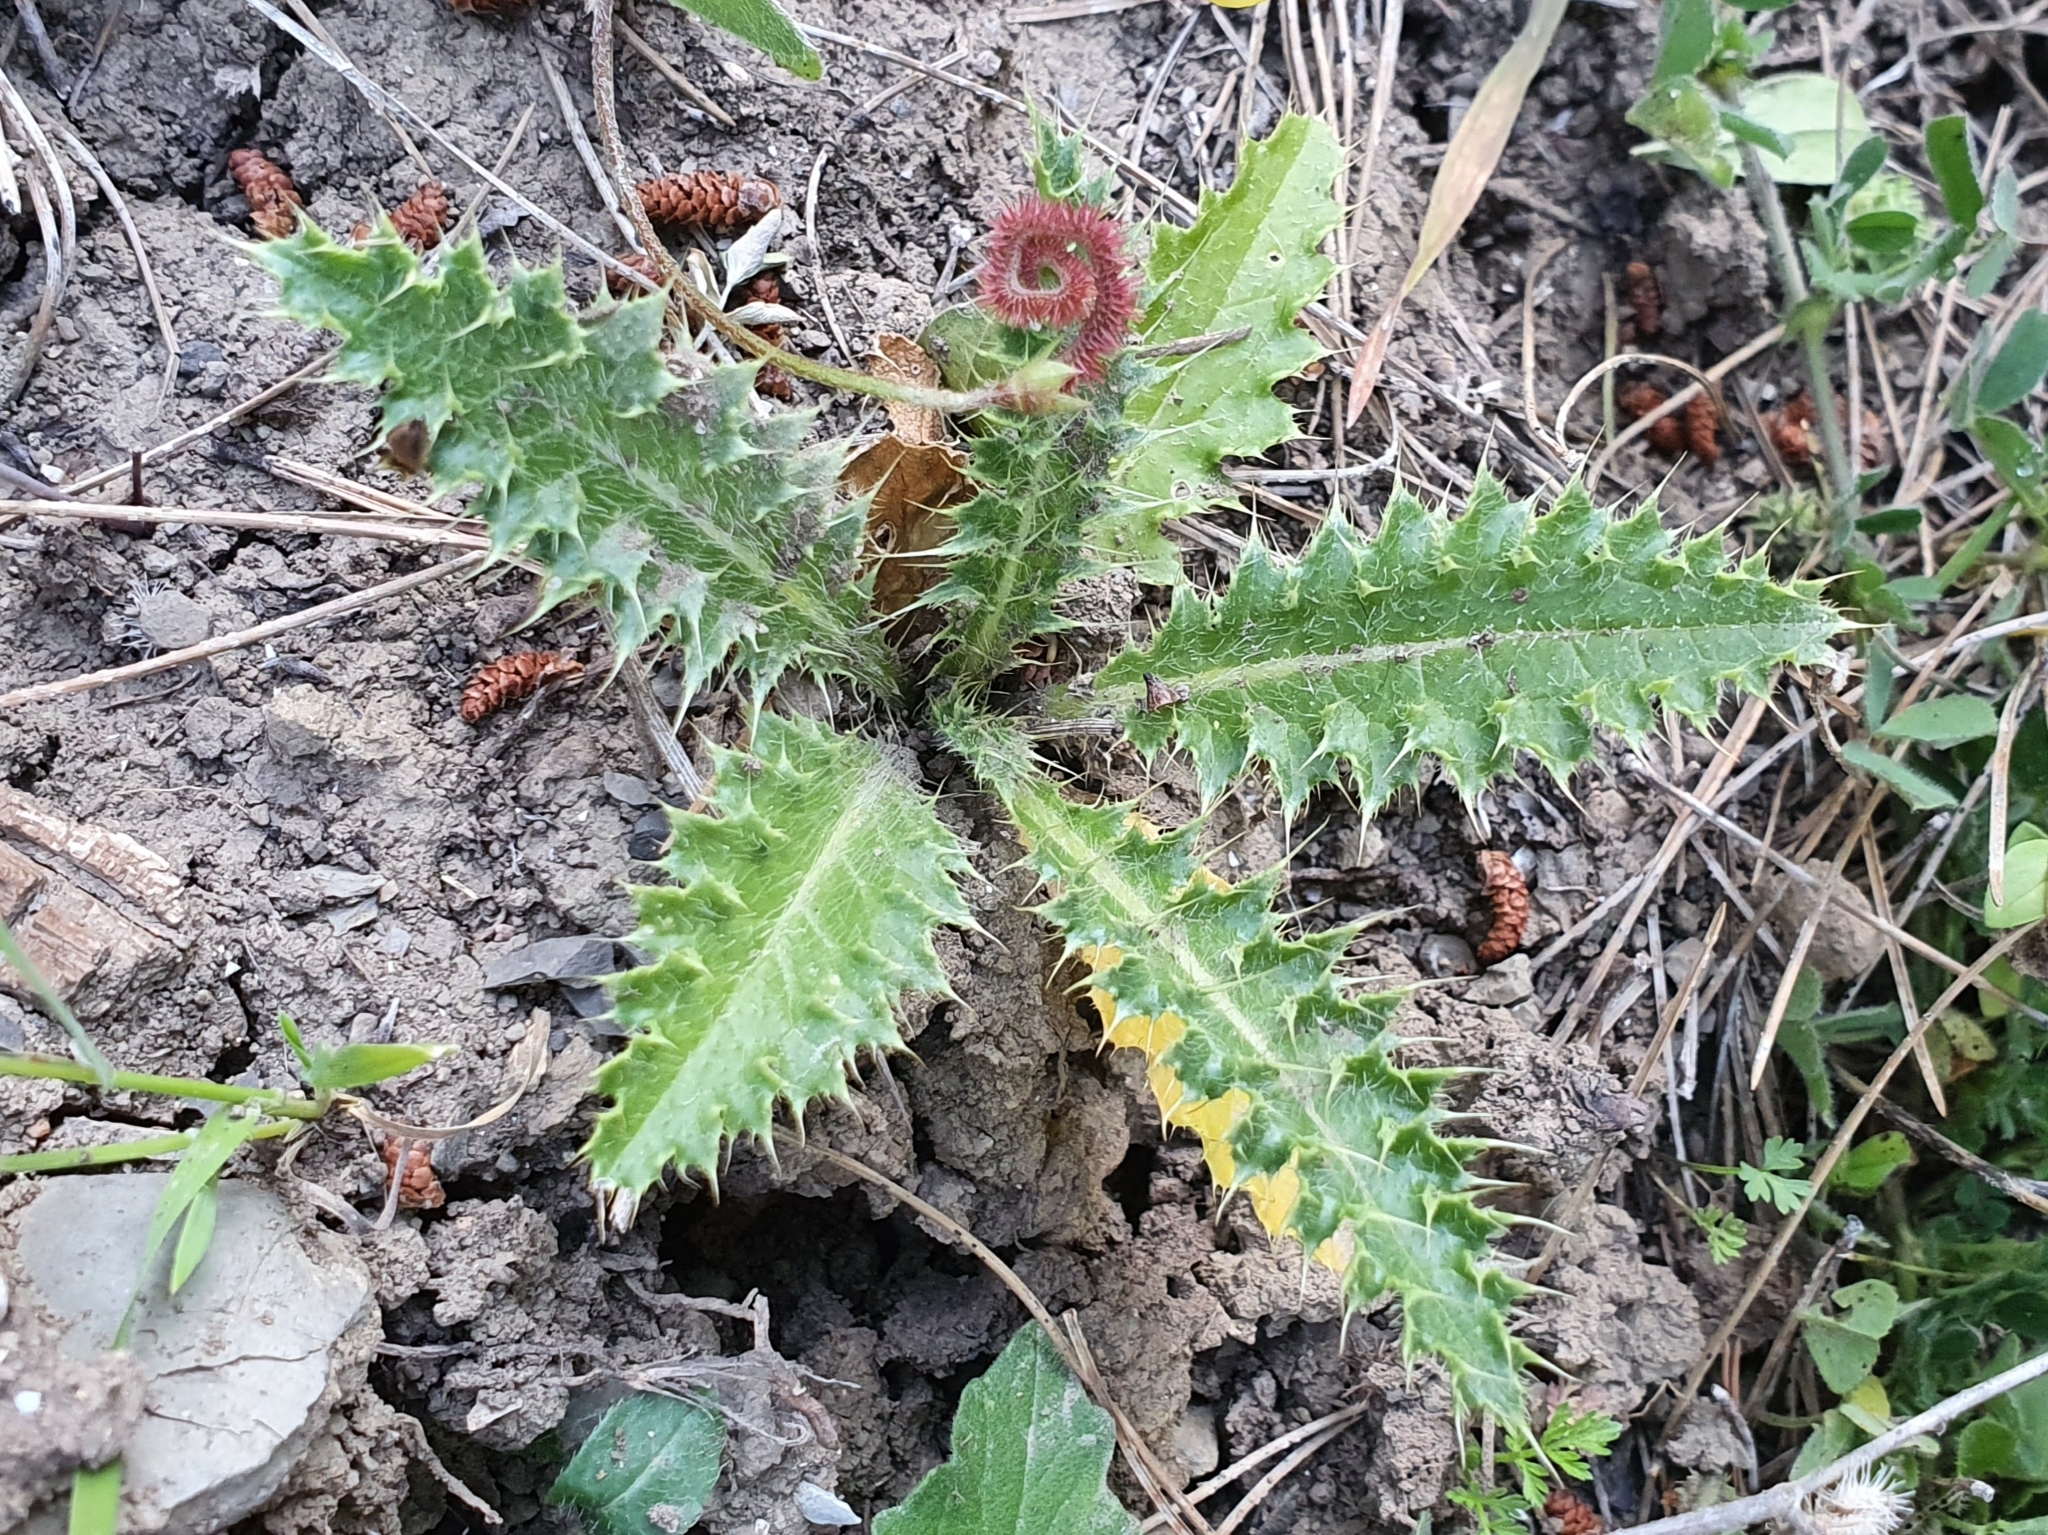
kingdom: Plantae
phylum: Tracheophyta
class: Magnoliopsida
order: Asterales
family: Asteraceae
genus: Carduus
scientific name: Carduus macrocephalus
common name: Giant thistle
